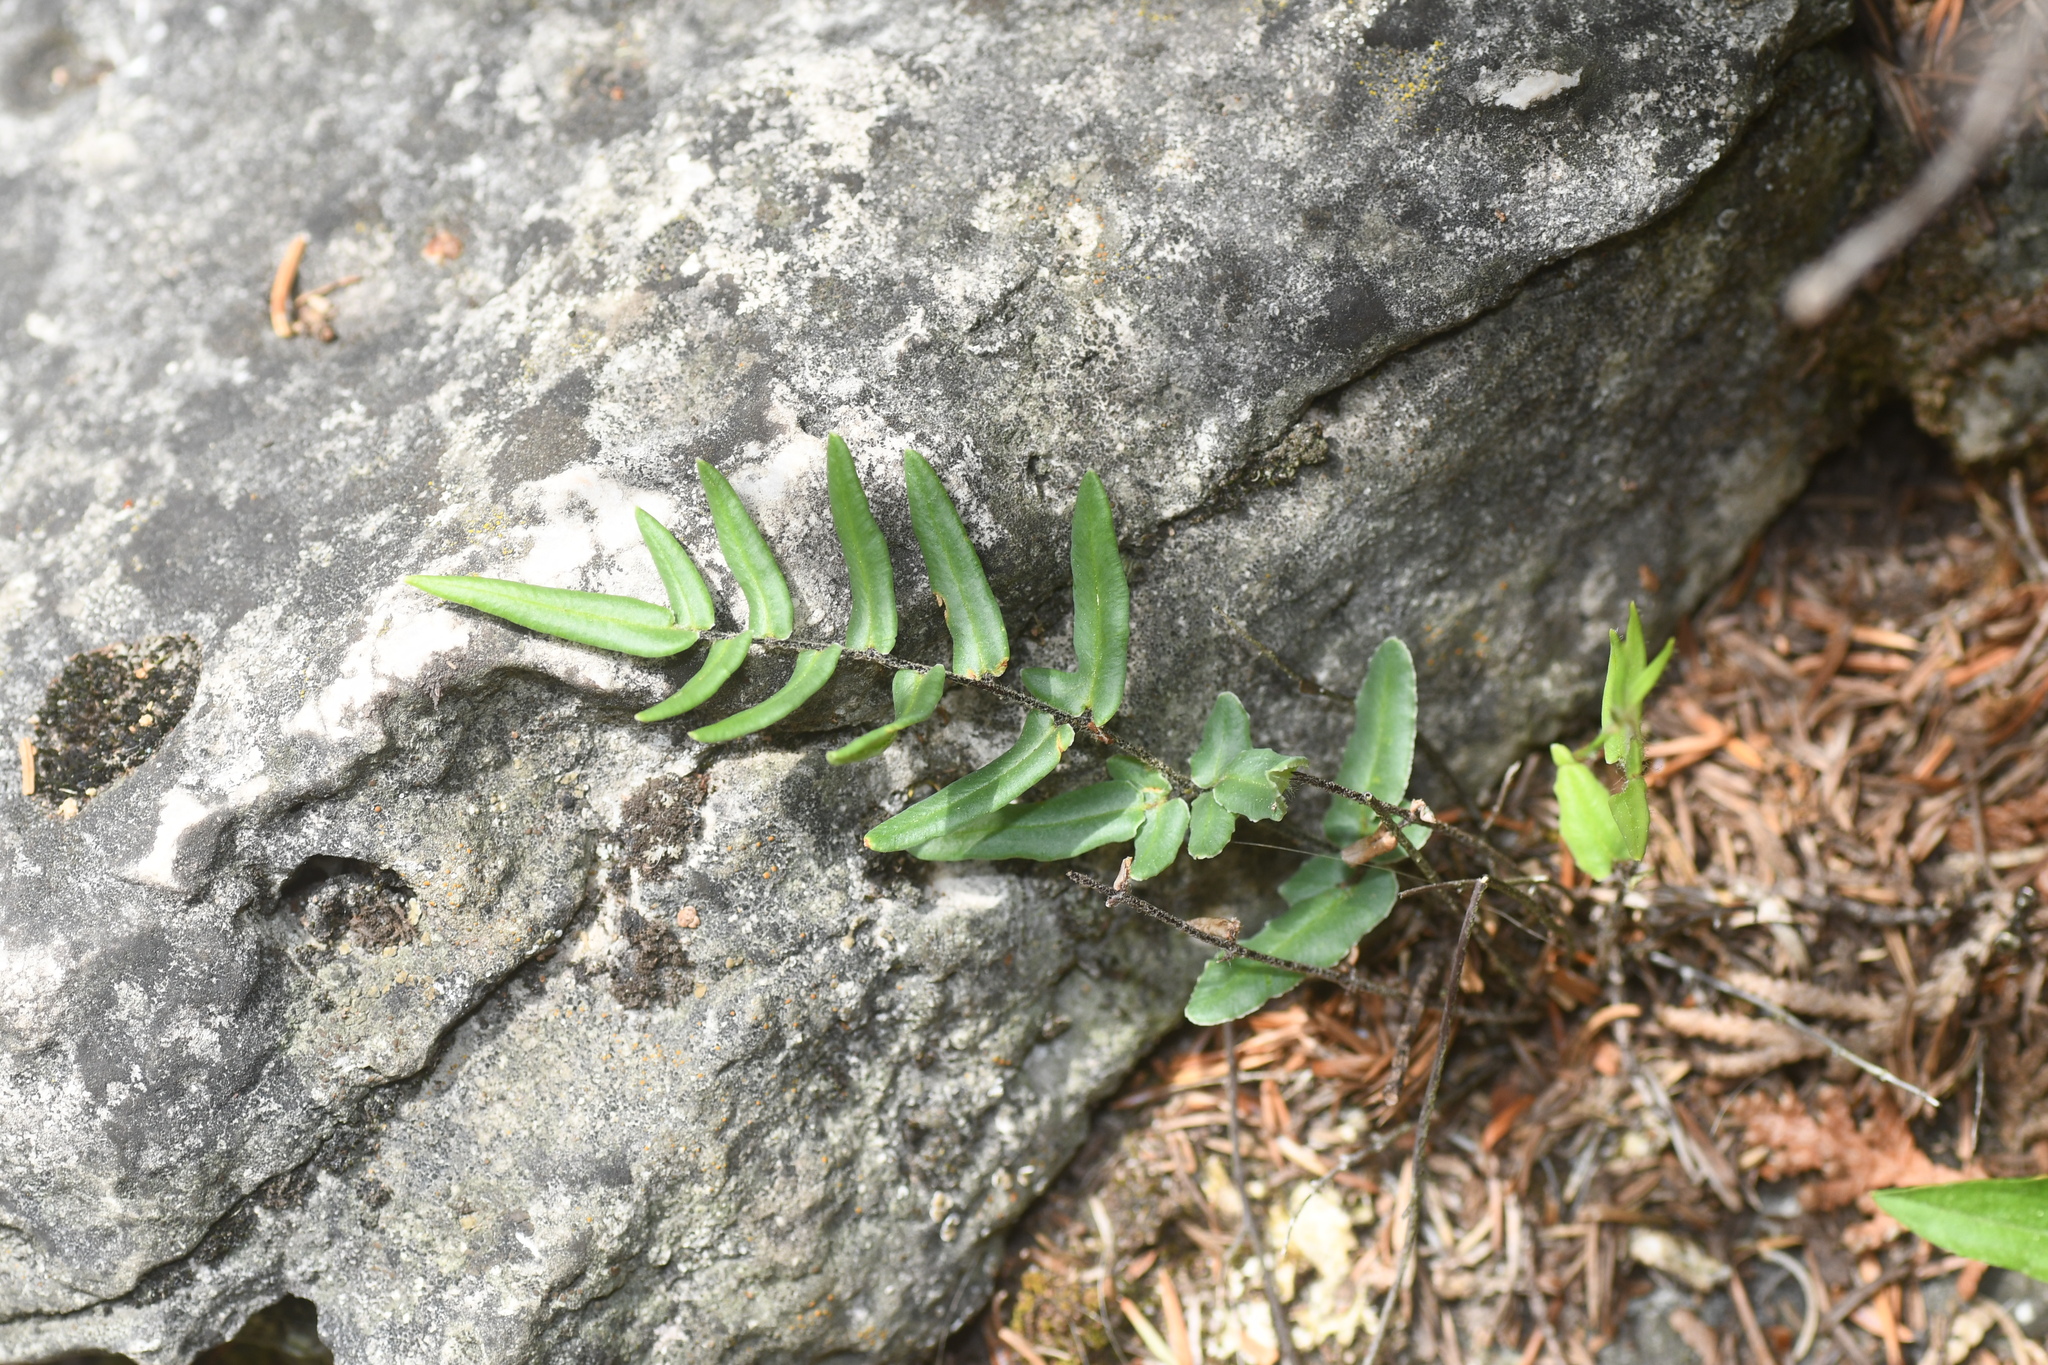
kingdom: Plantae
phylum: Tracheophyta
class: Polypodiopsida
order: Polypodiales
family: Pteridaceae
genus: Pellaea
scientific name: Pellaea atropurpurea
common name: Hairy cliffbrake
